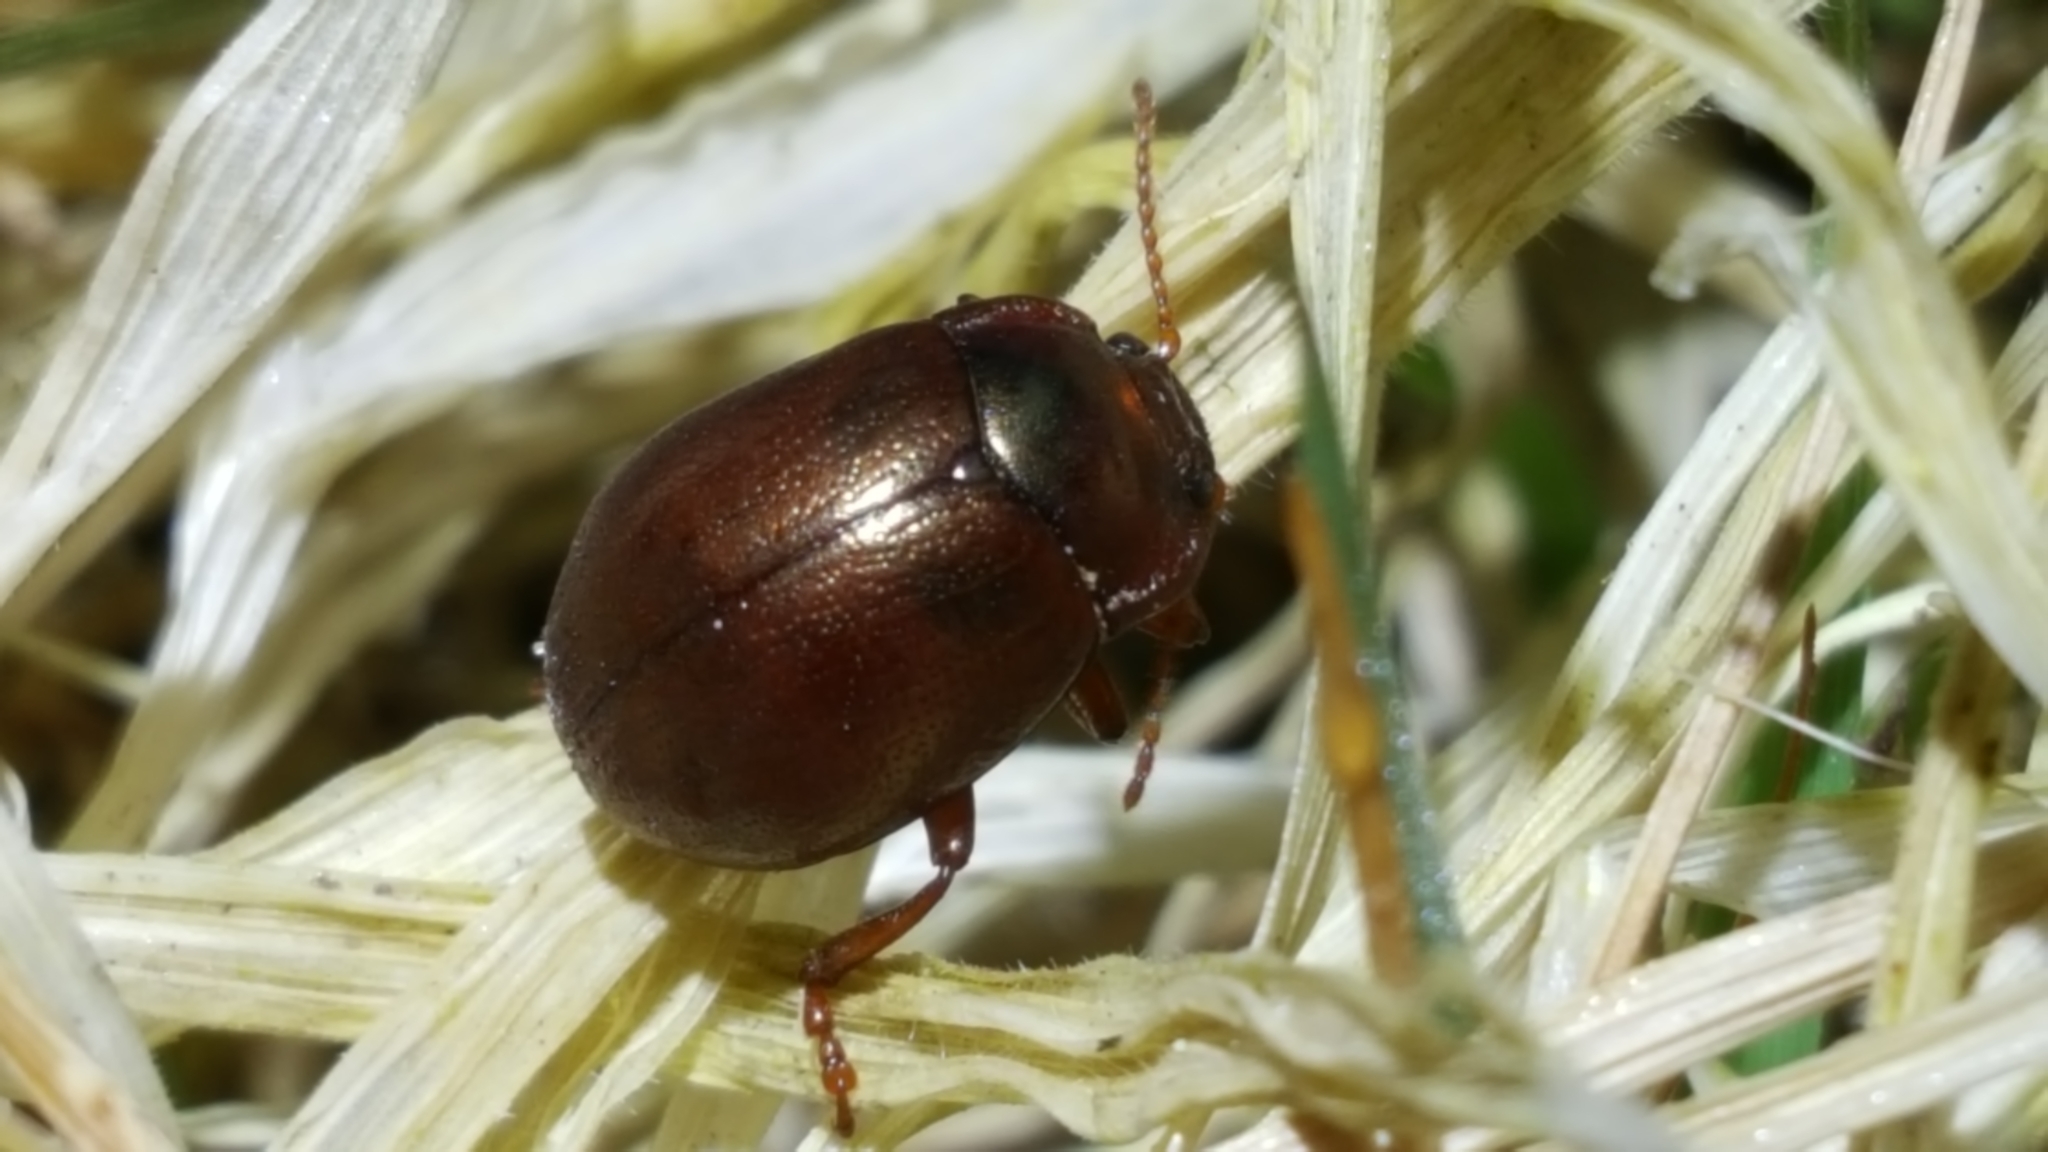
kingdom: Animalia
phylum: Arthropoda
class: Insecta
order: Coleoptera
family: Chrysomelidae
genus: Chrysolina
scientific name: Chrysolina staphylaea
